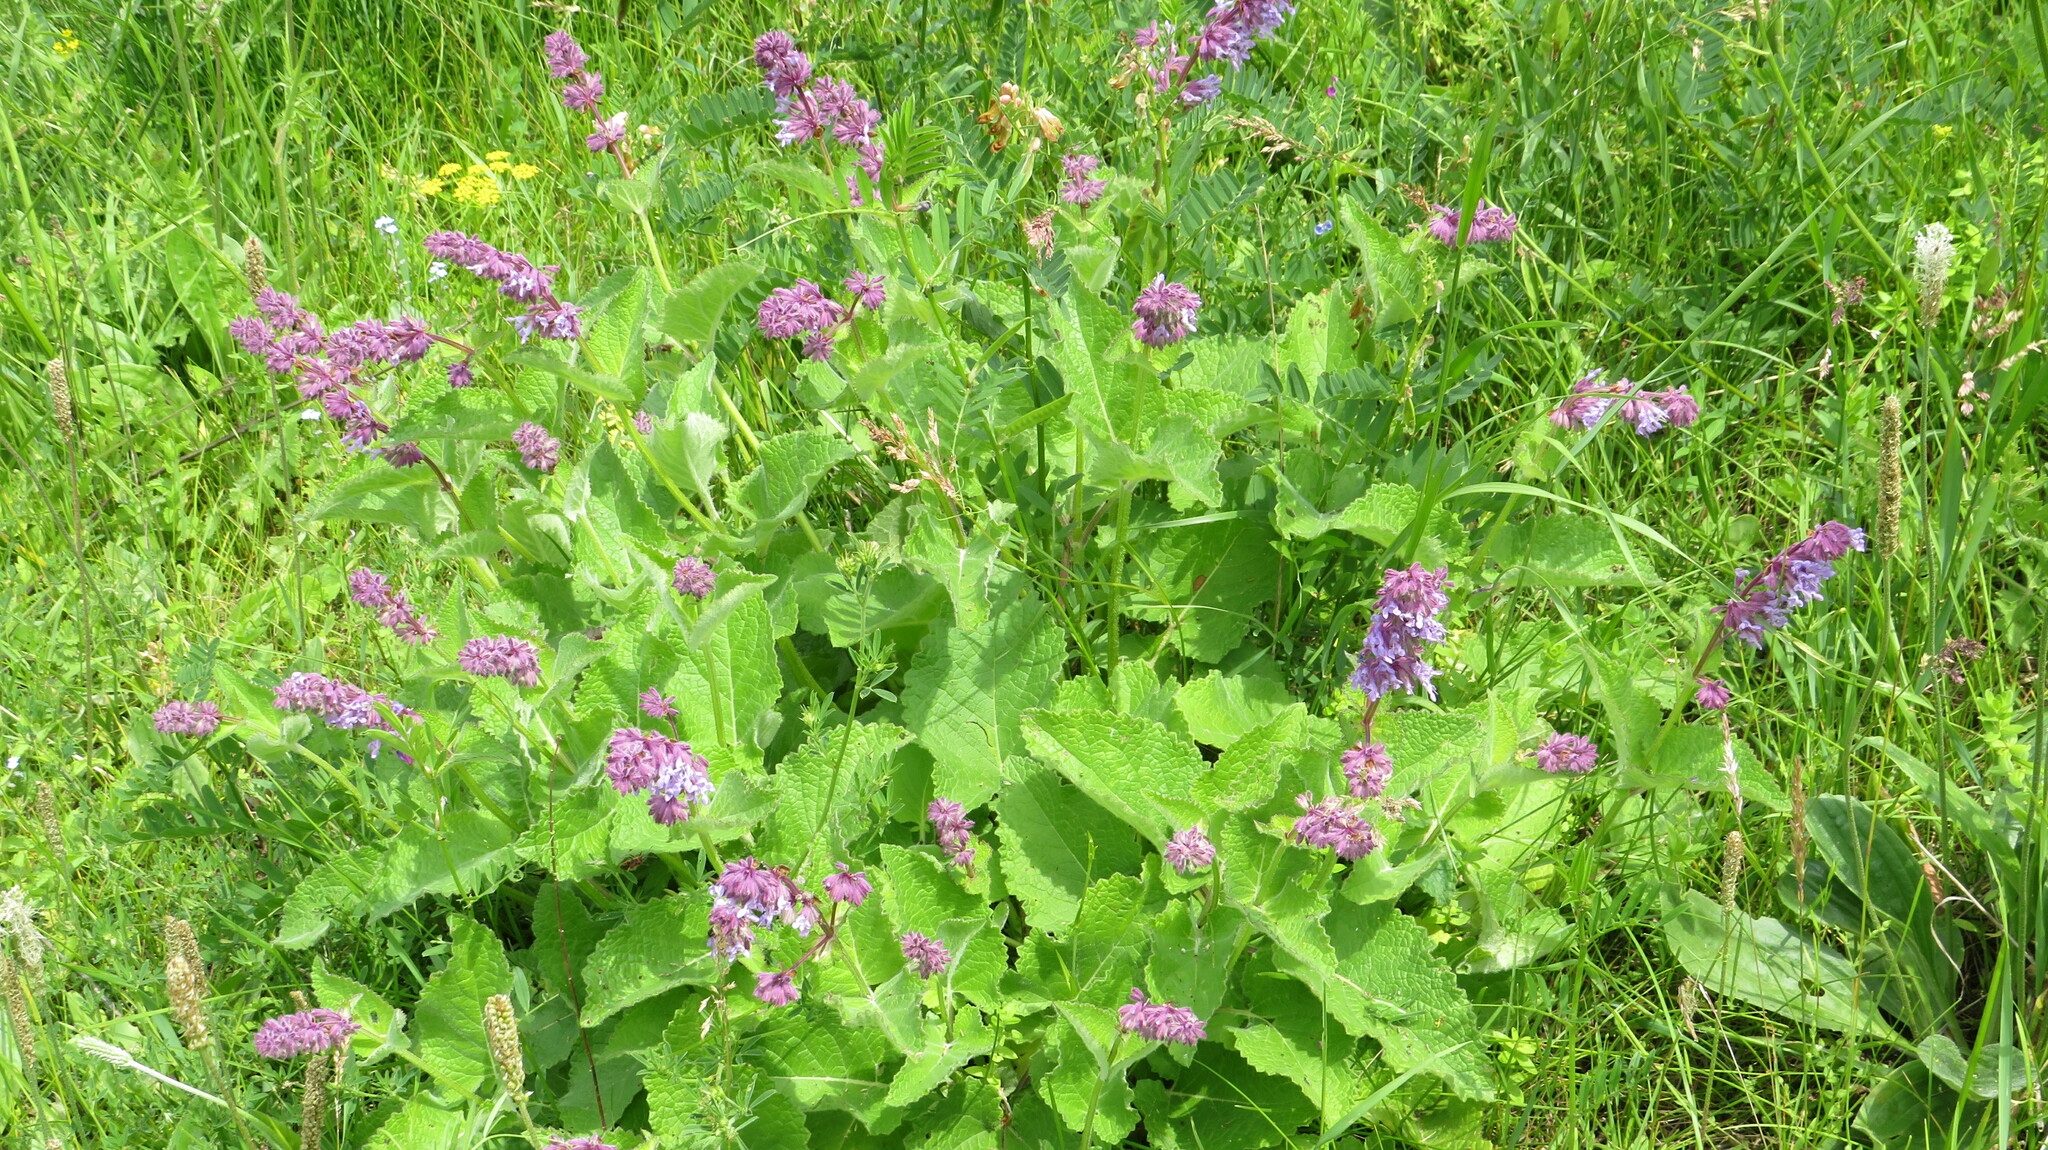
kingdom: Plantae
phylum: Tracheophyta
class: Magnoliopsida
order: Lamiales
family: Lamiaceae
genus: Salvia
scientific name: Salvia verticillata
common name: Whorled clary
